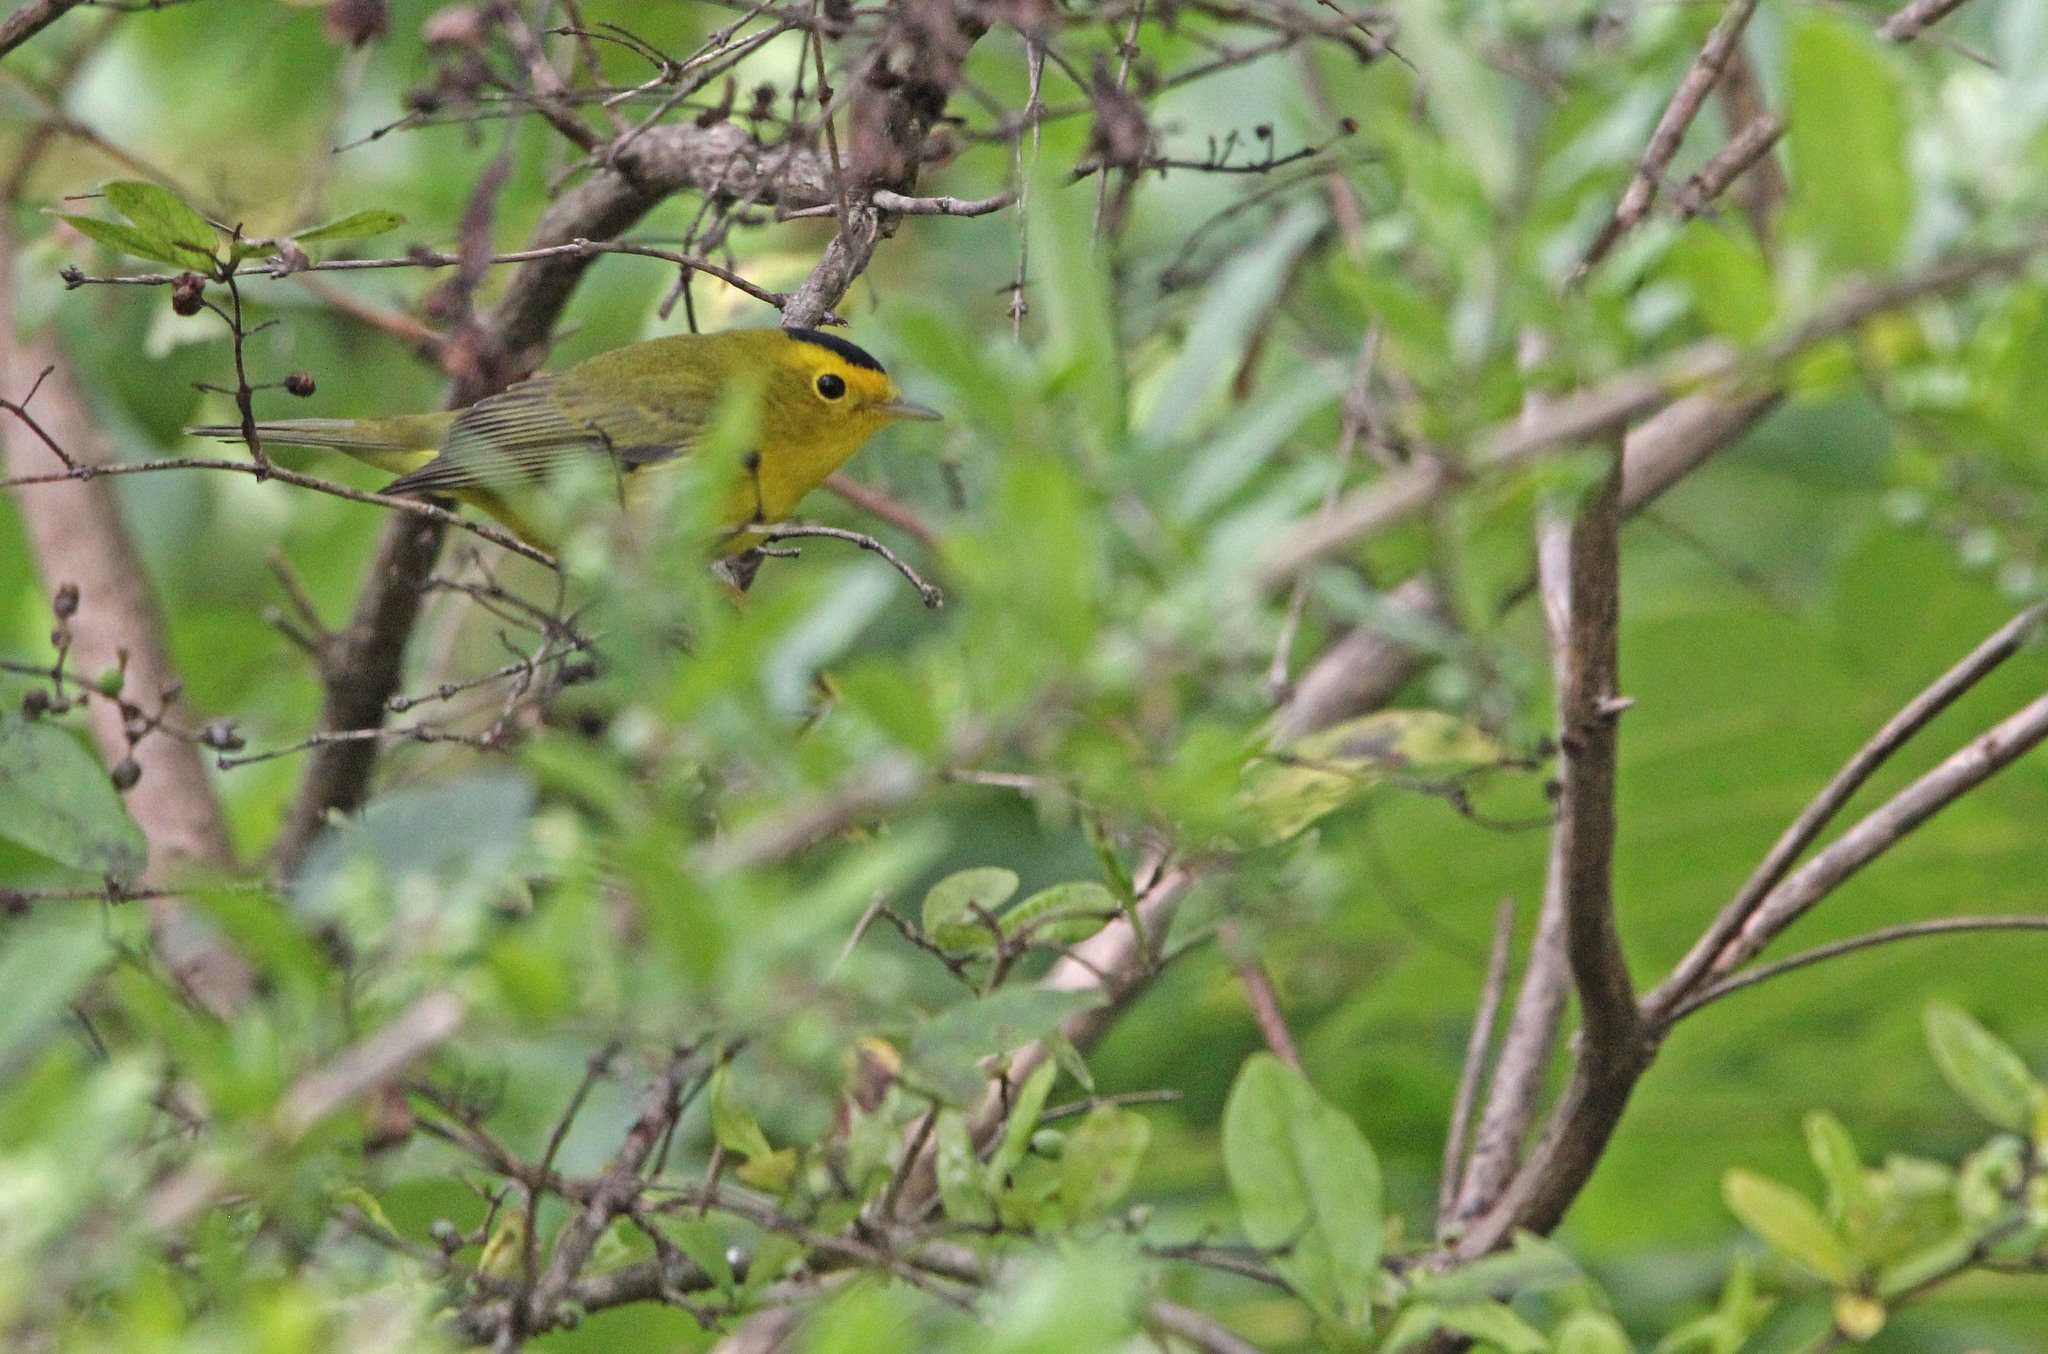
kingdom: Animalia
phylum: Chordata
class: Aves
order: Passeriformes
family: Parulidae
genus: Cardellina
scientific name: Cardellina pusilla
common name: Wilson's warbler
